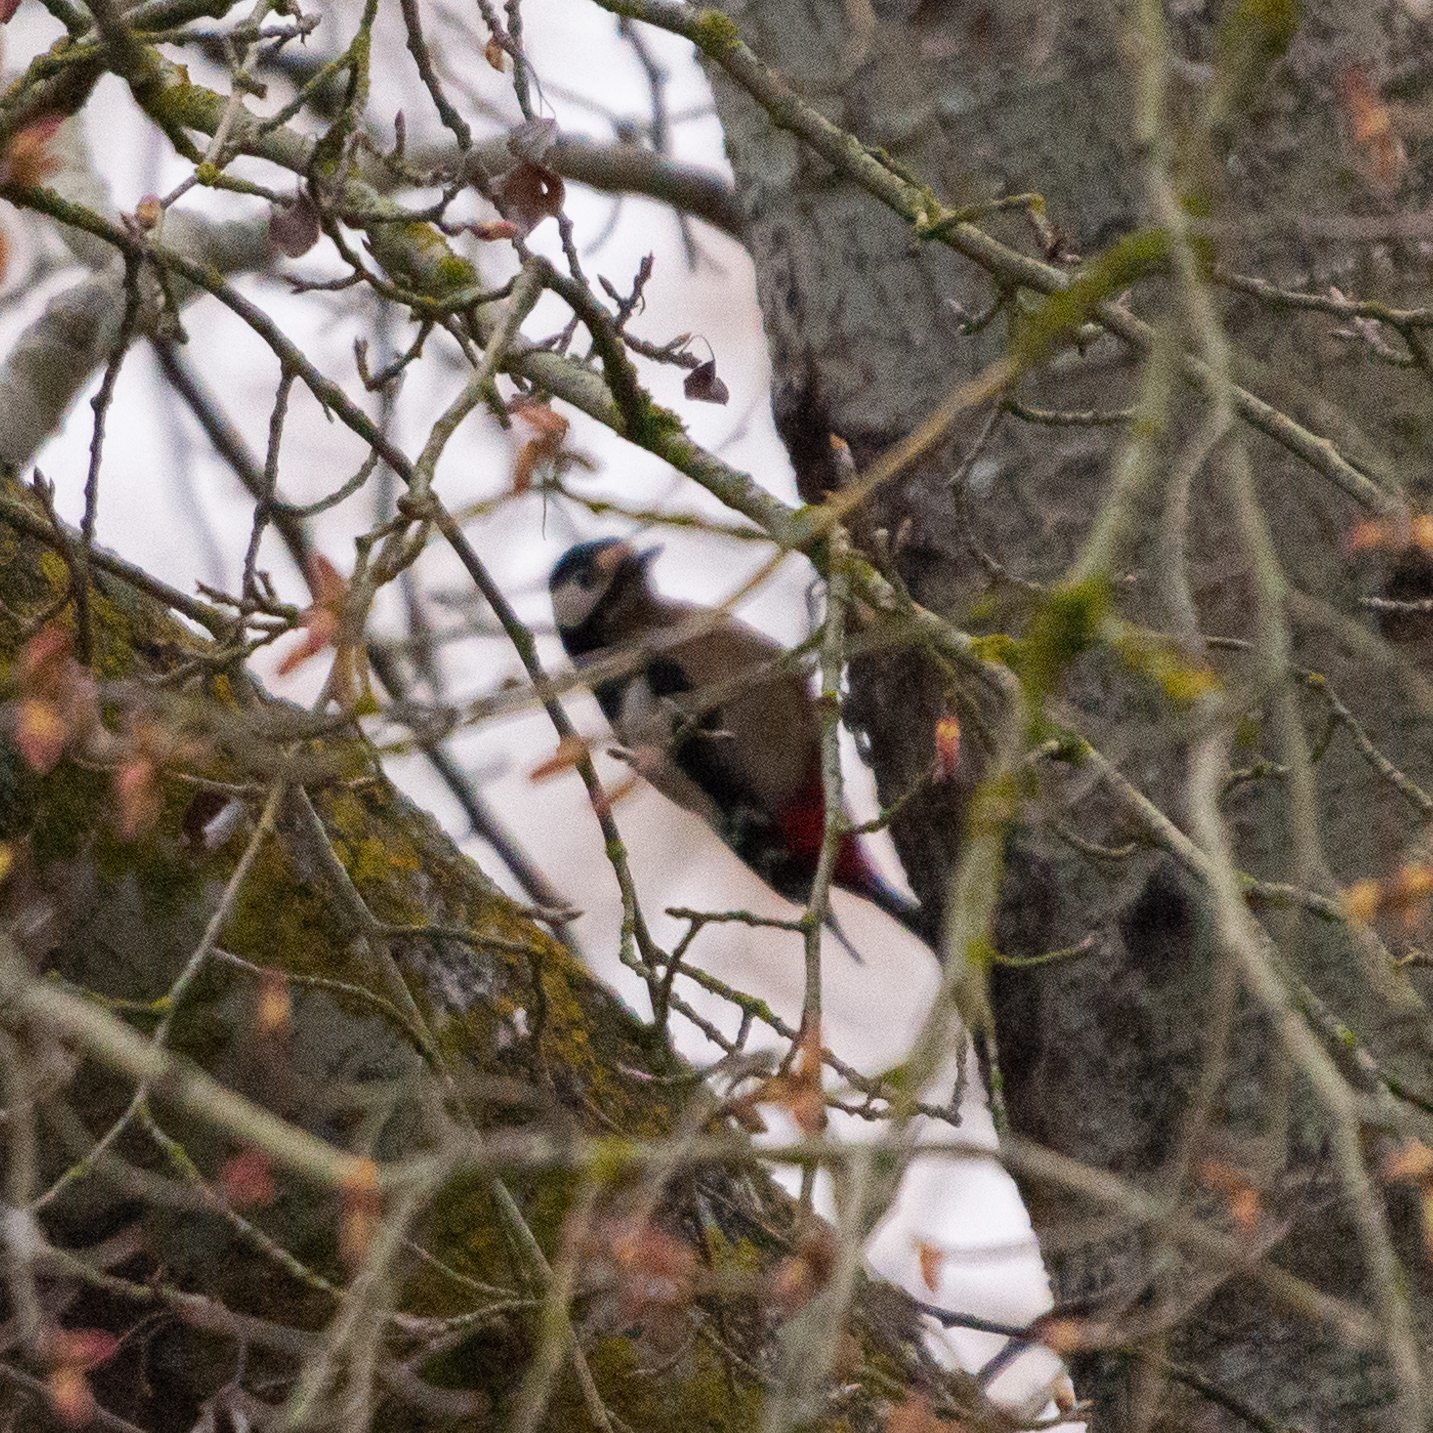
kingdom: Animalia
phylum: Chordata
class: Aves
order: Piciformes
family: Picidae
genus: Dendrocopos
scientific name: Dendrocopos major
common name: Great spotted woodpecker
